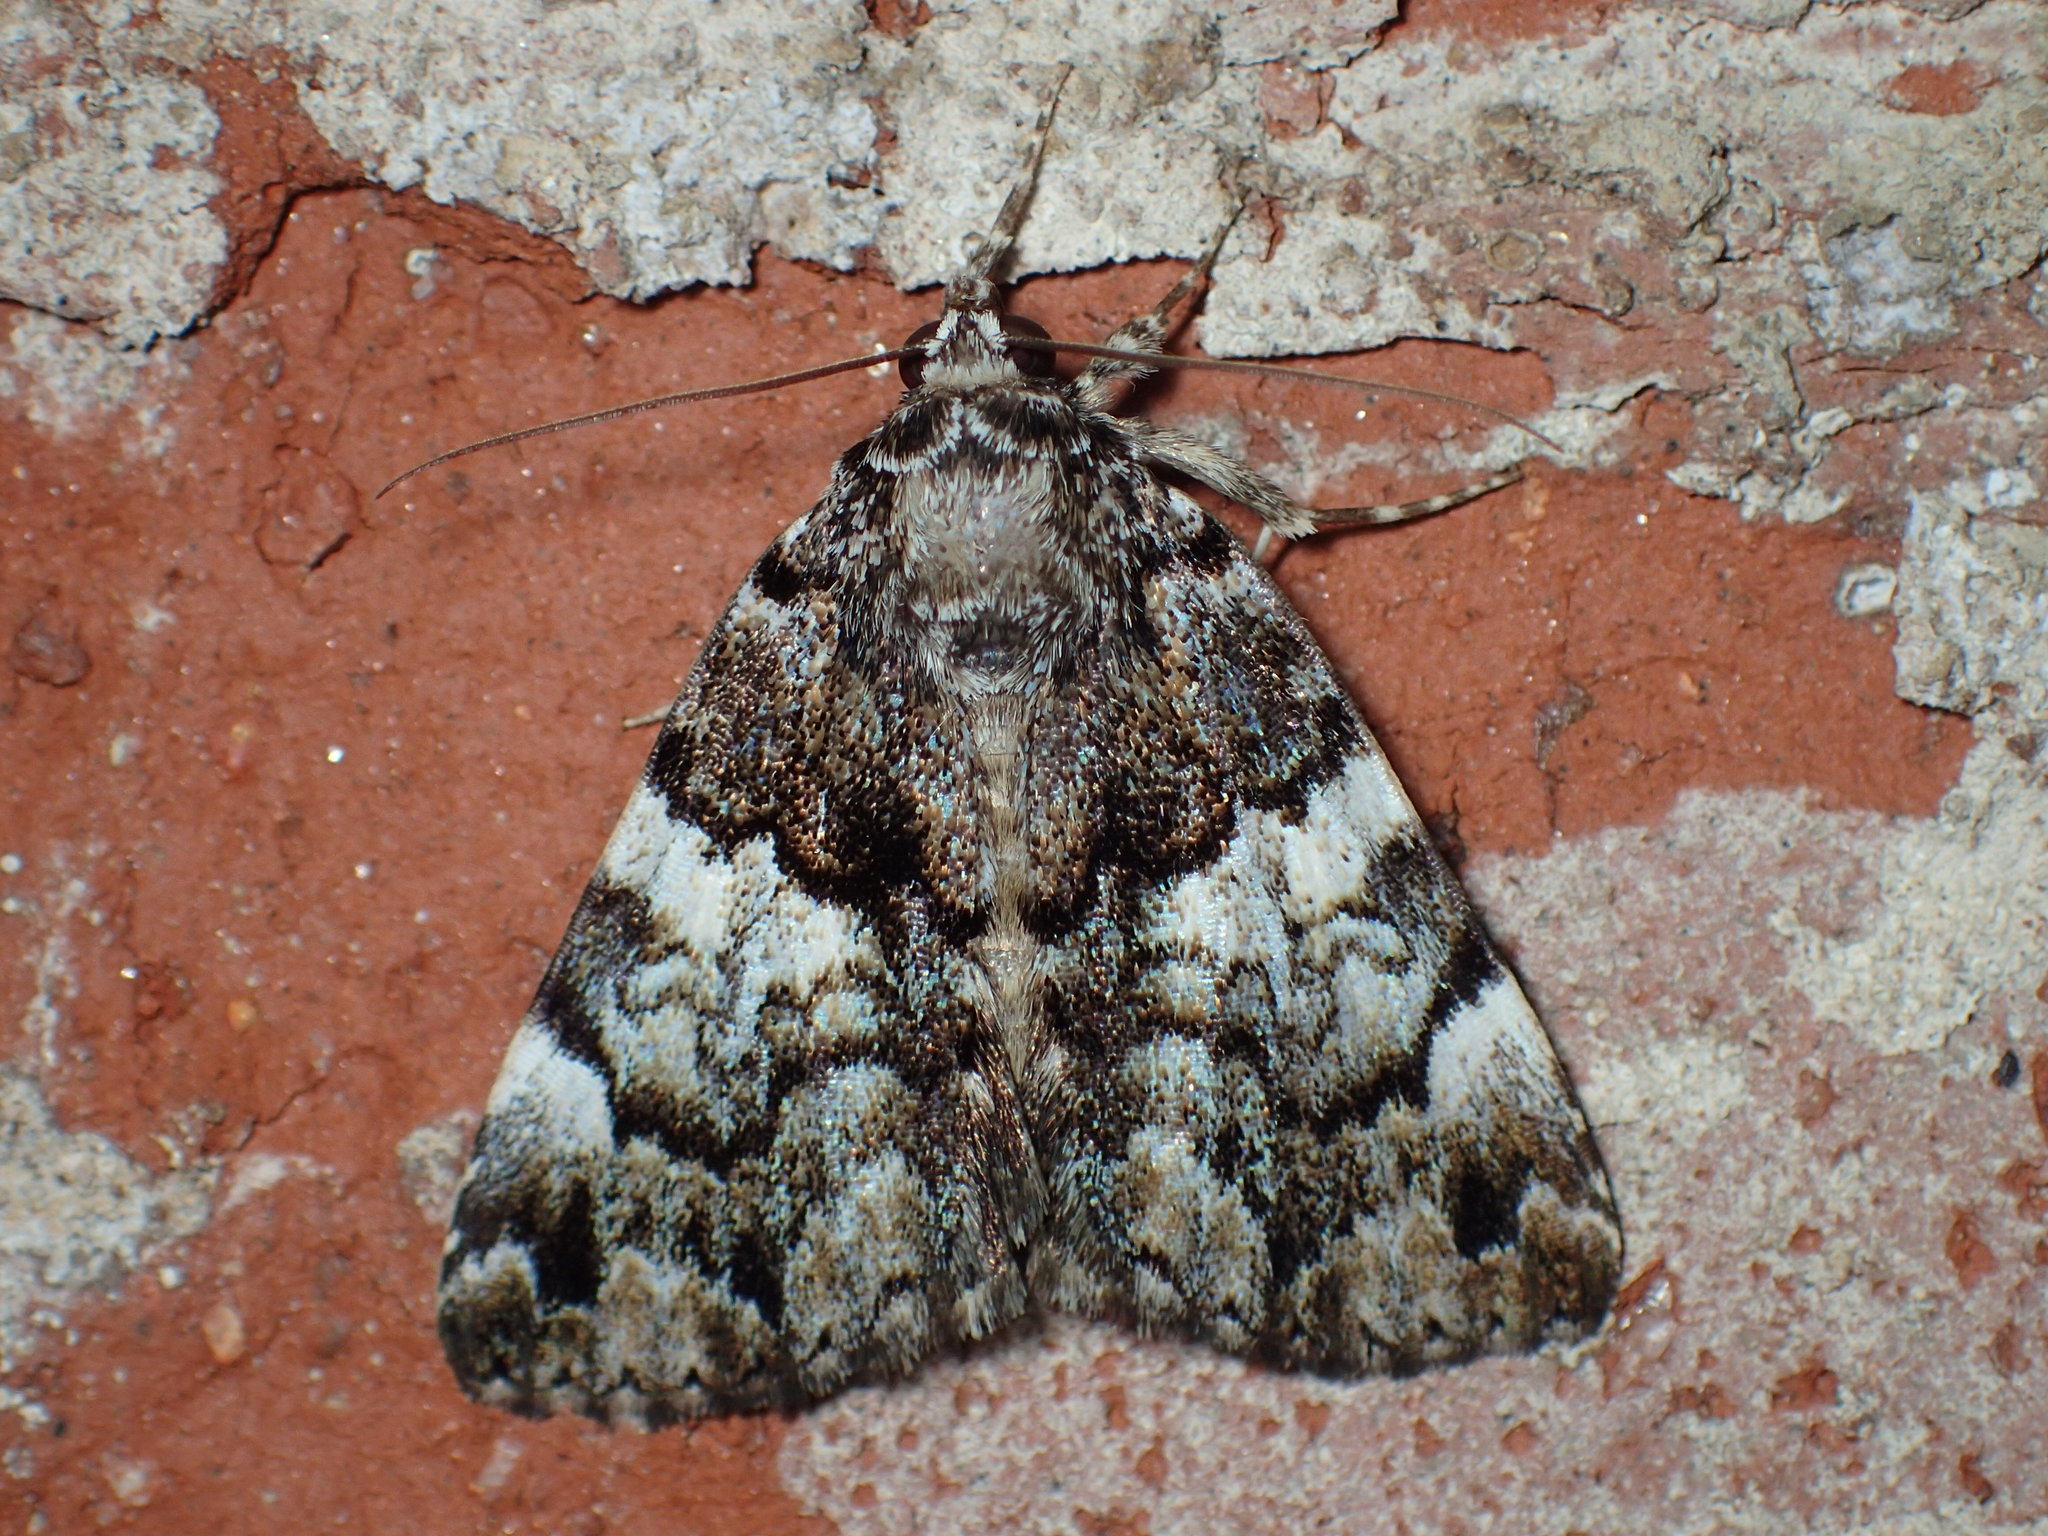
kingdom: Animalia
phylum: Arthropoda
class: Insecta
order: Lepidoptera
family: Erebidae
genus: Allotria
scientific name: Allotria elonympha
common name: False underwing
